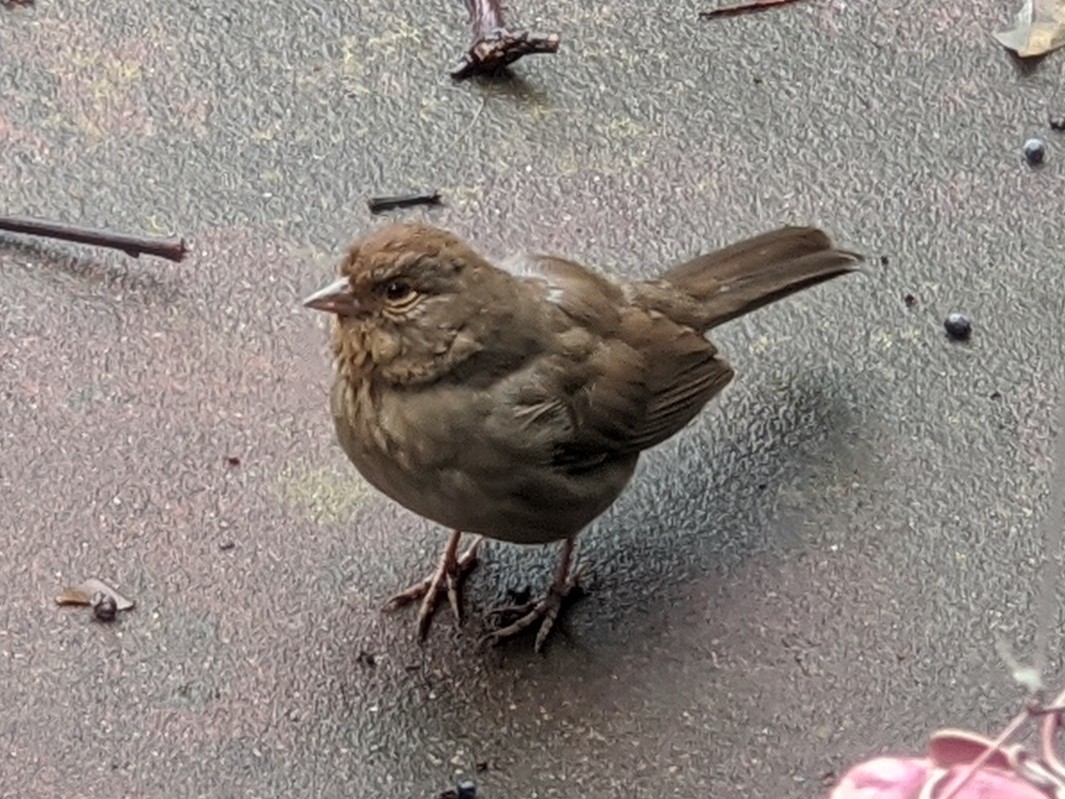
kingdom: Animalia
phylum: Chordata
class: Aves
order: Passeriformes
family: Passerellidae
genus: Melozone
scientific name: Melozone crissalis
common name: California towhee
